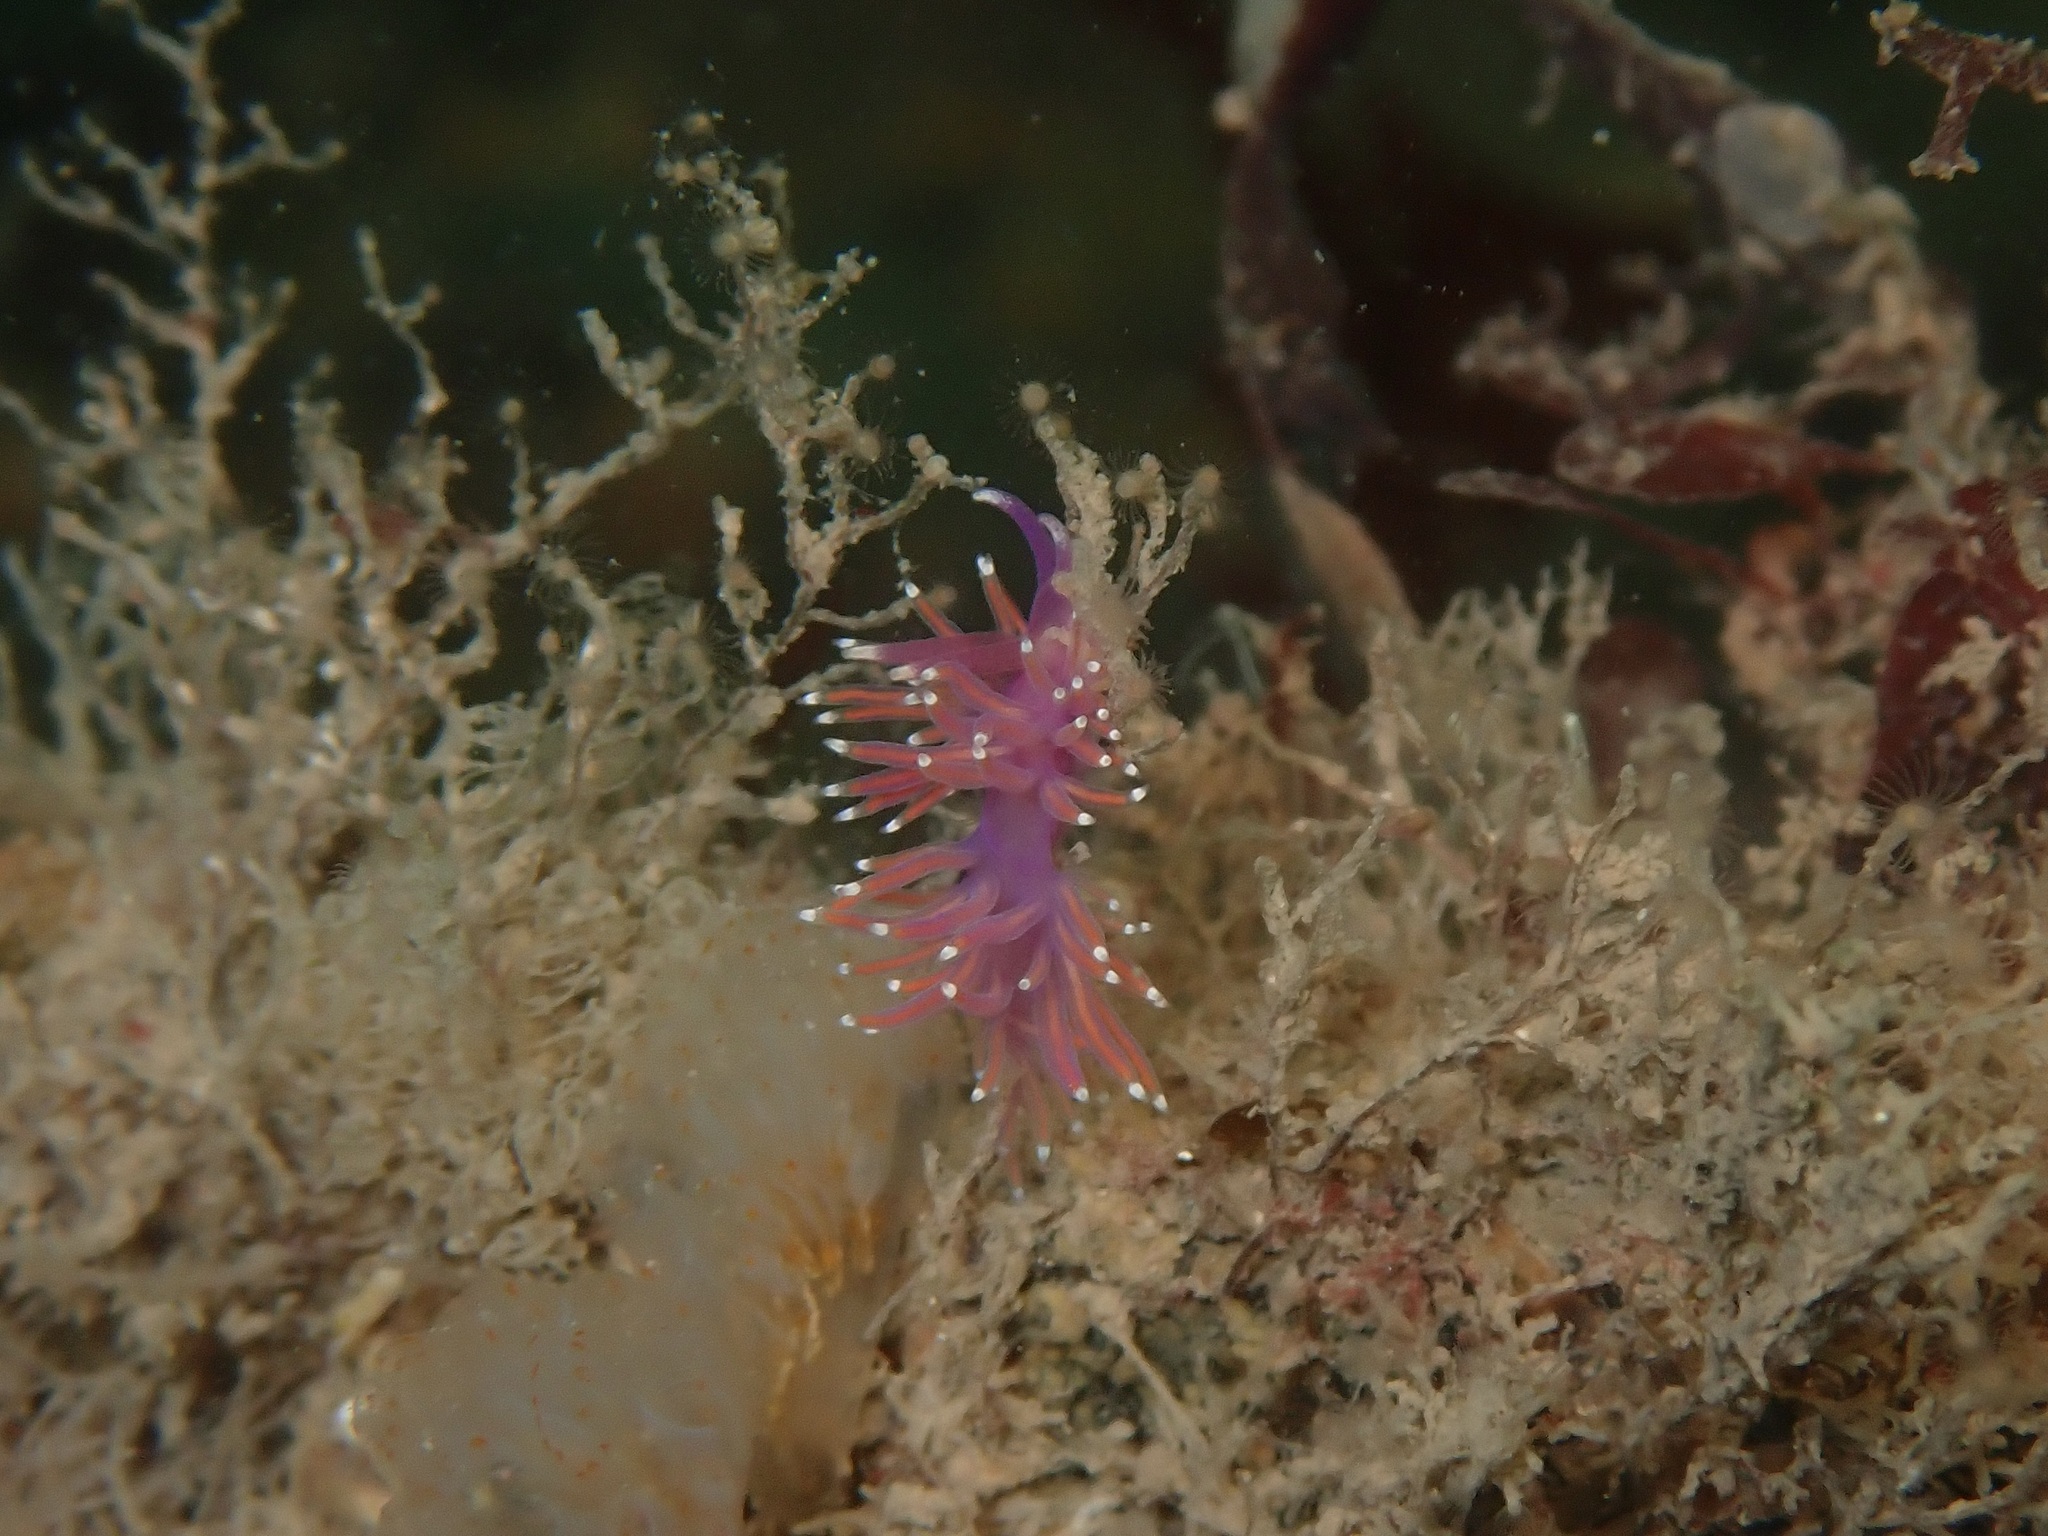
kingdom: Animalia
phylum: Mollusca
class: Gastropoda
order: Nudibranchia
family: Flabellinidae
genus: Edmundsella
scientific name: Edmundsella pedata
